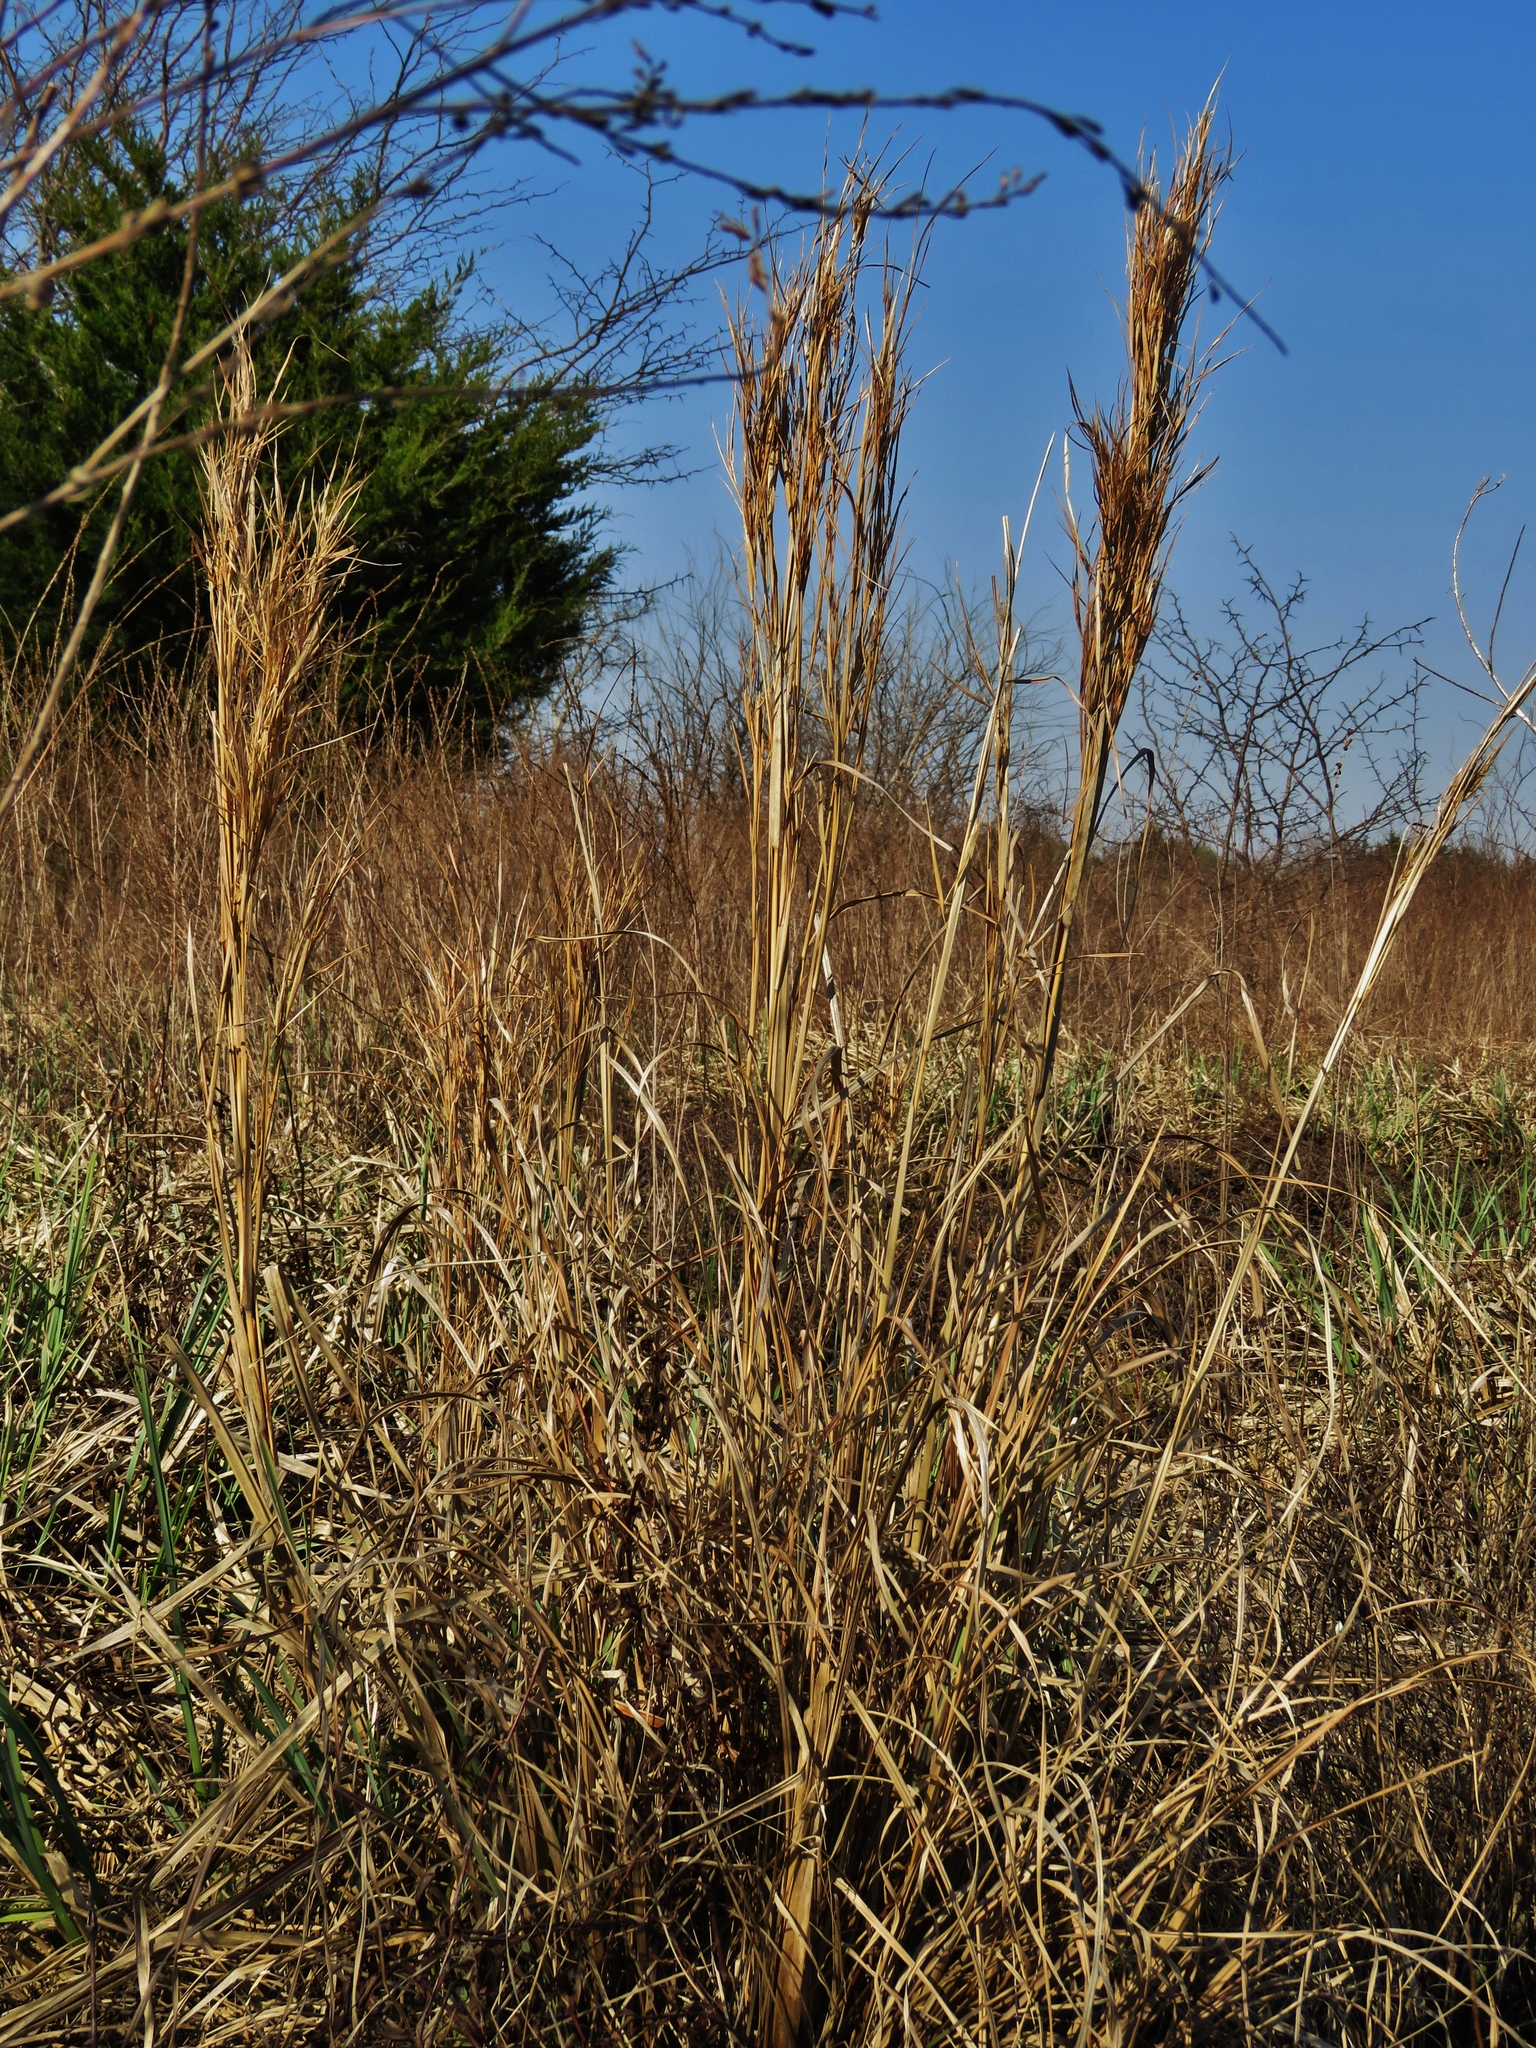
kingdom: Plantae
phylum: Tracheophyta
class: Liliopsida
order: Poales
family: Poaceae
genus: Andropogon
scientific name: Andropogon tenuispatheus
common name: Bushy bluestem
